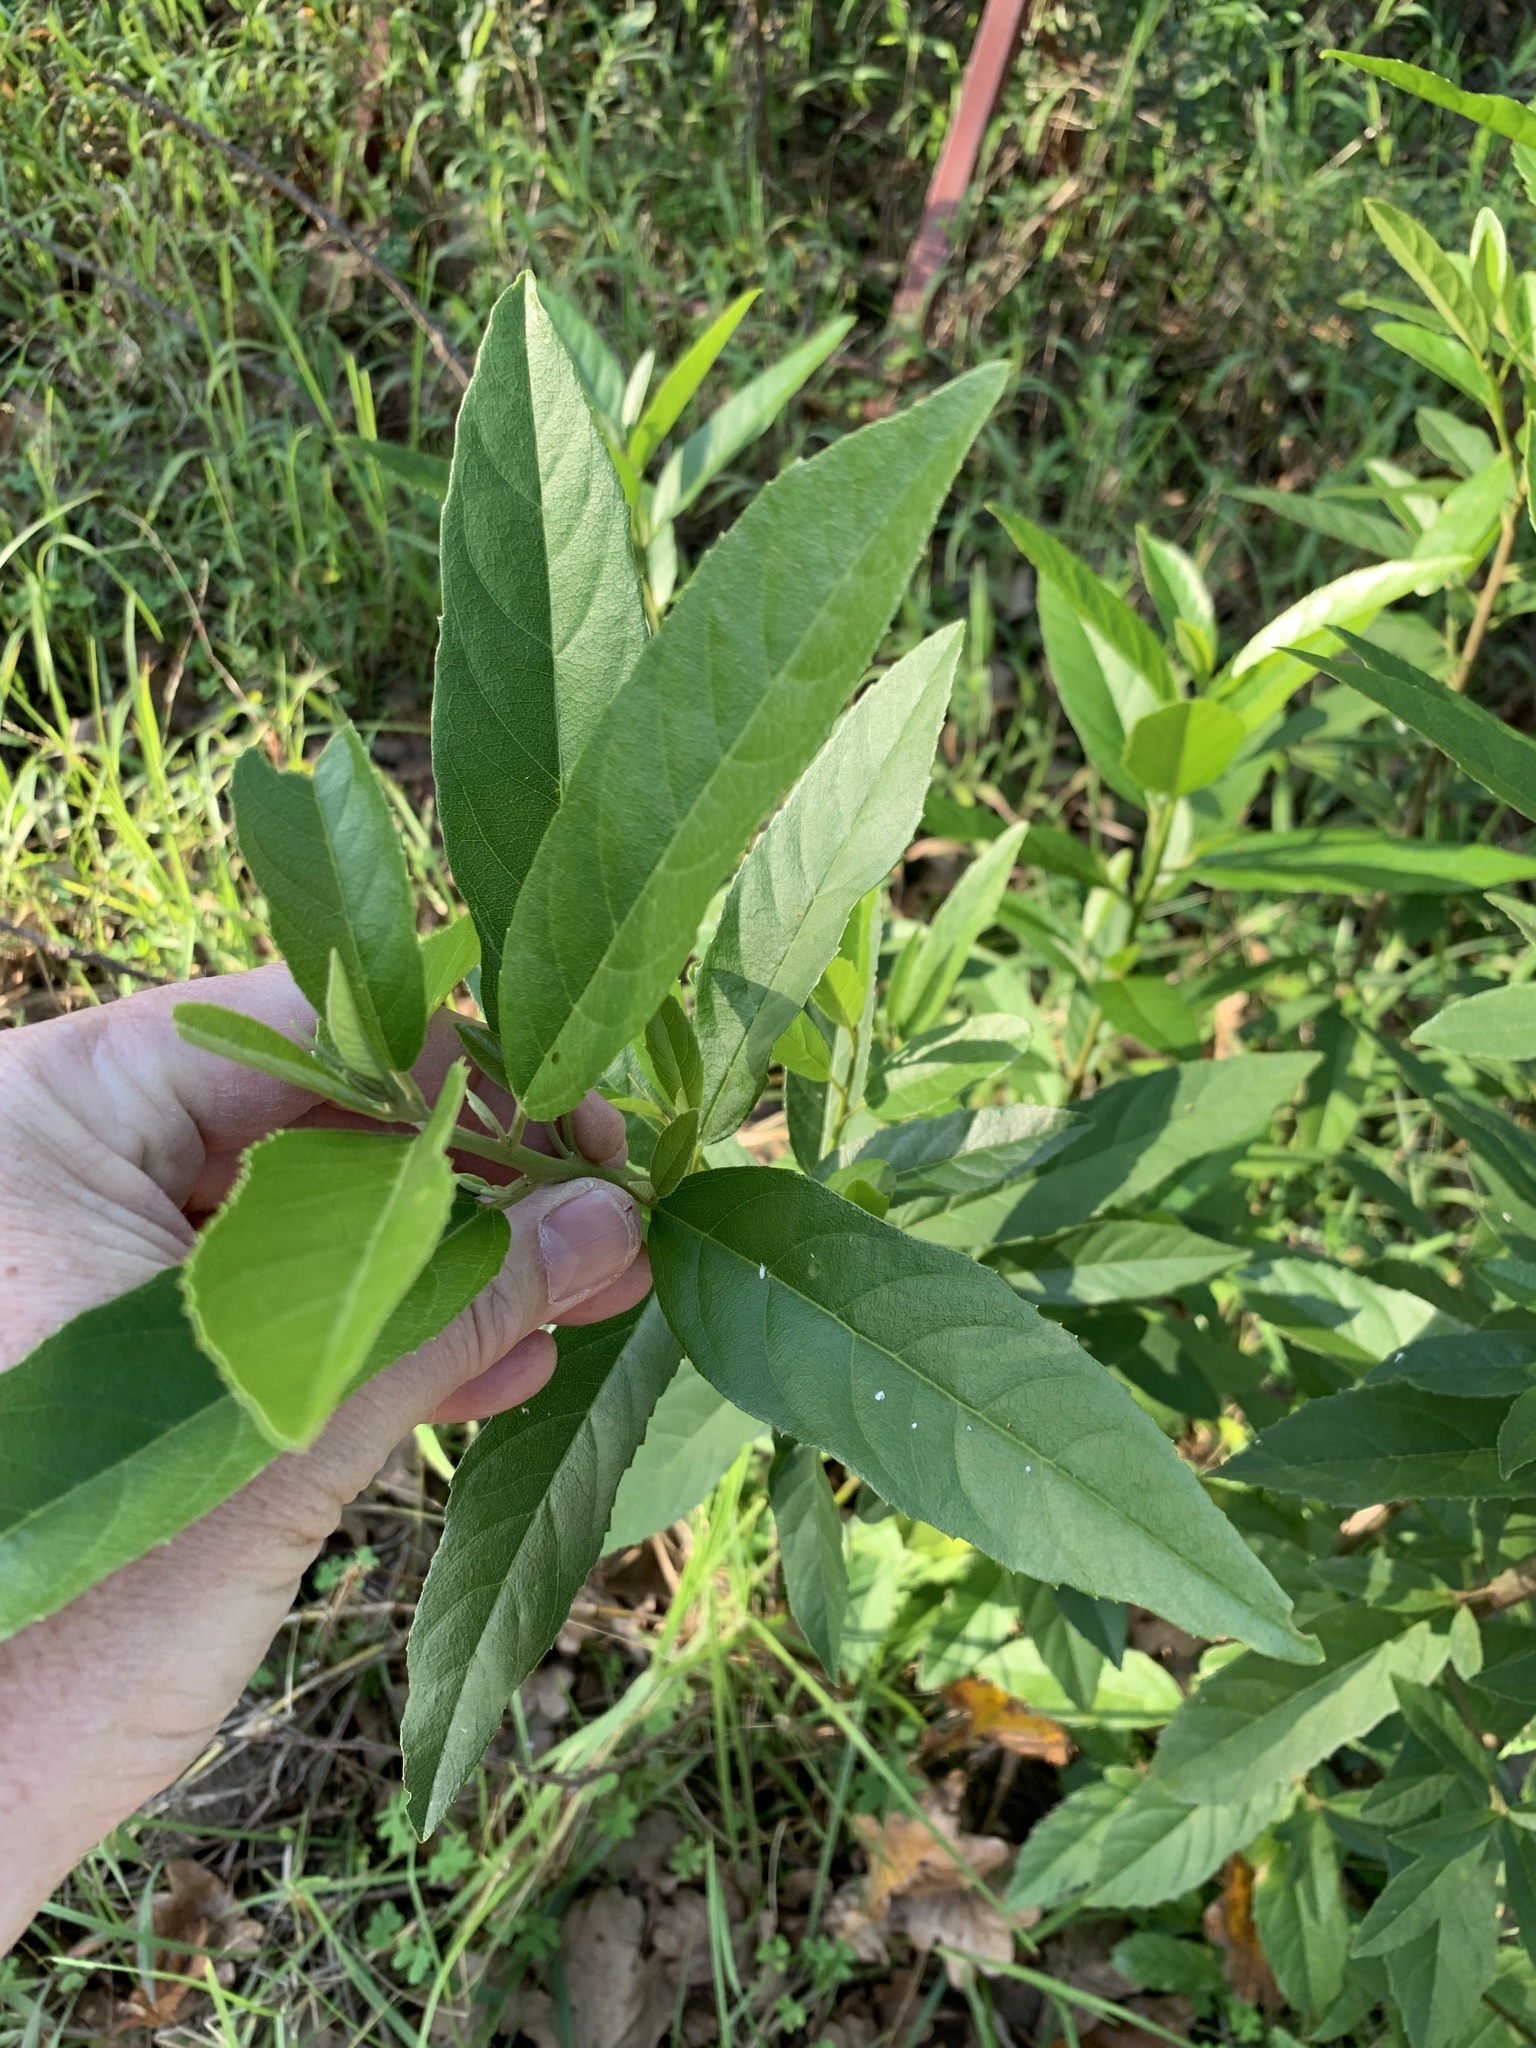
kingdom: Plantae
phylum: Tracheophyta
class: Magnoliopsida
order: Malpighiales
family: Achariaceae
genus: Kiggelaria
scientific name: Kiggelaria africana
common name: Wild peach
